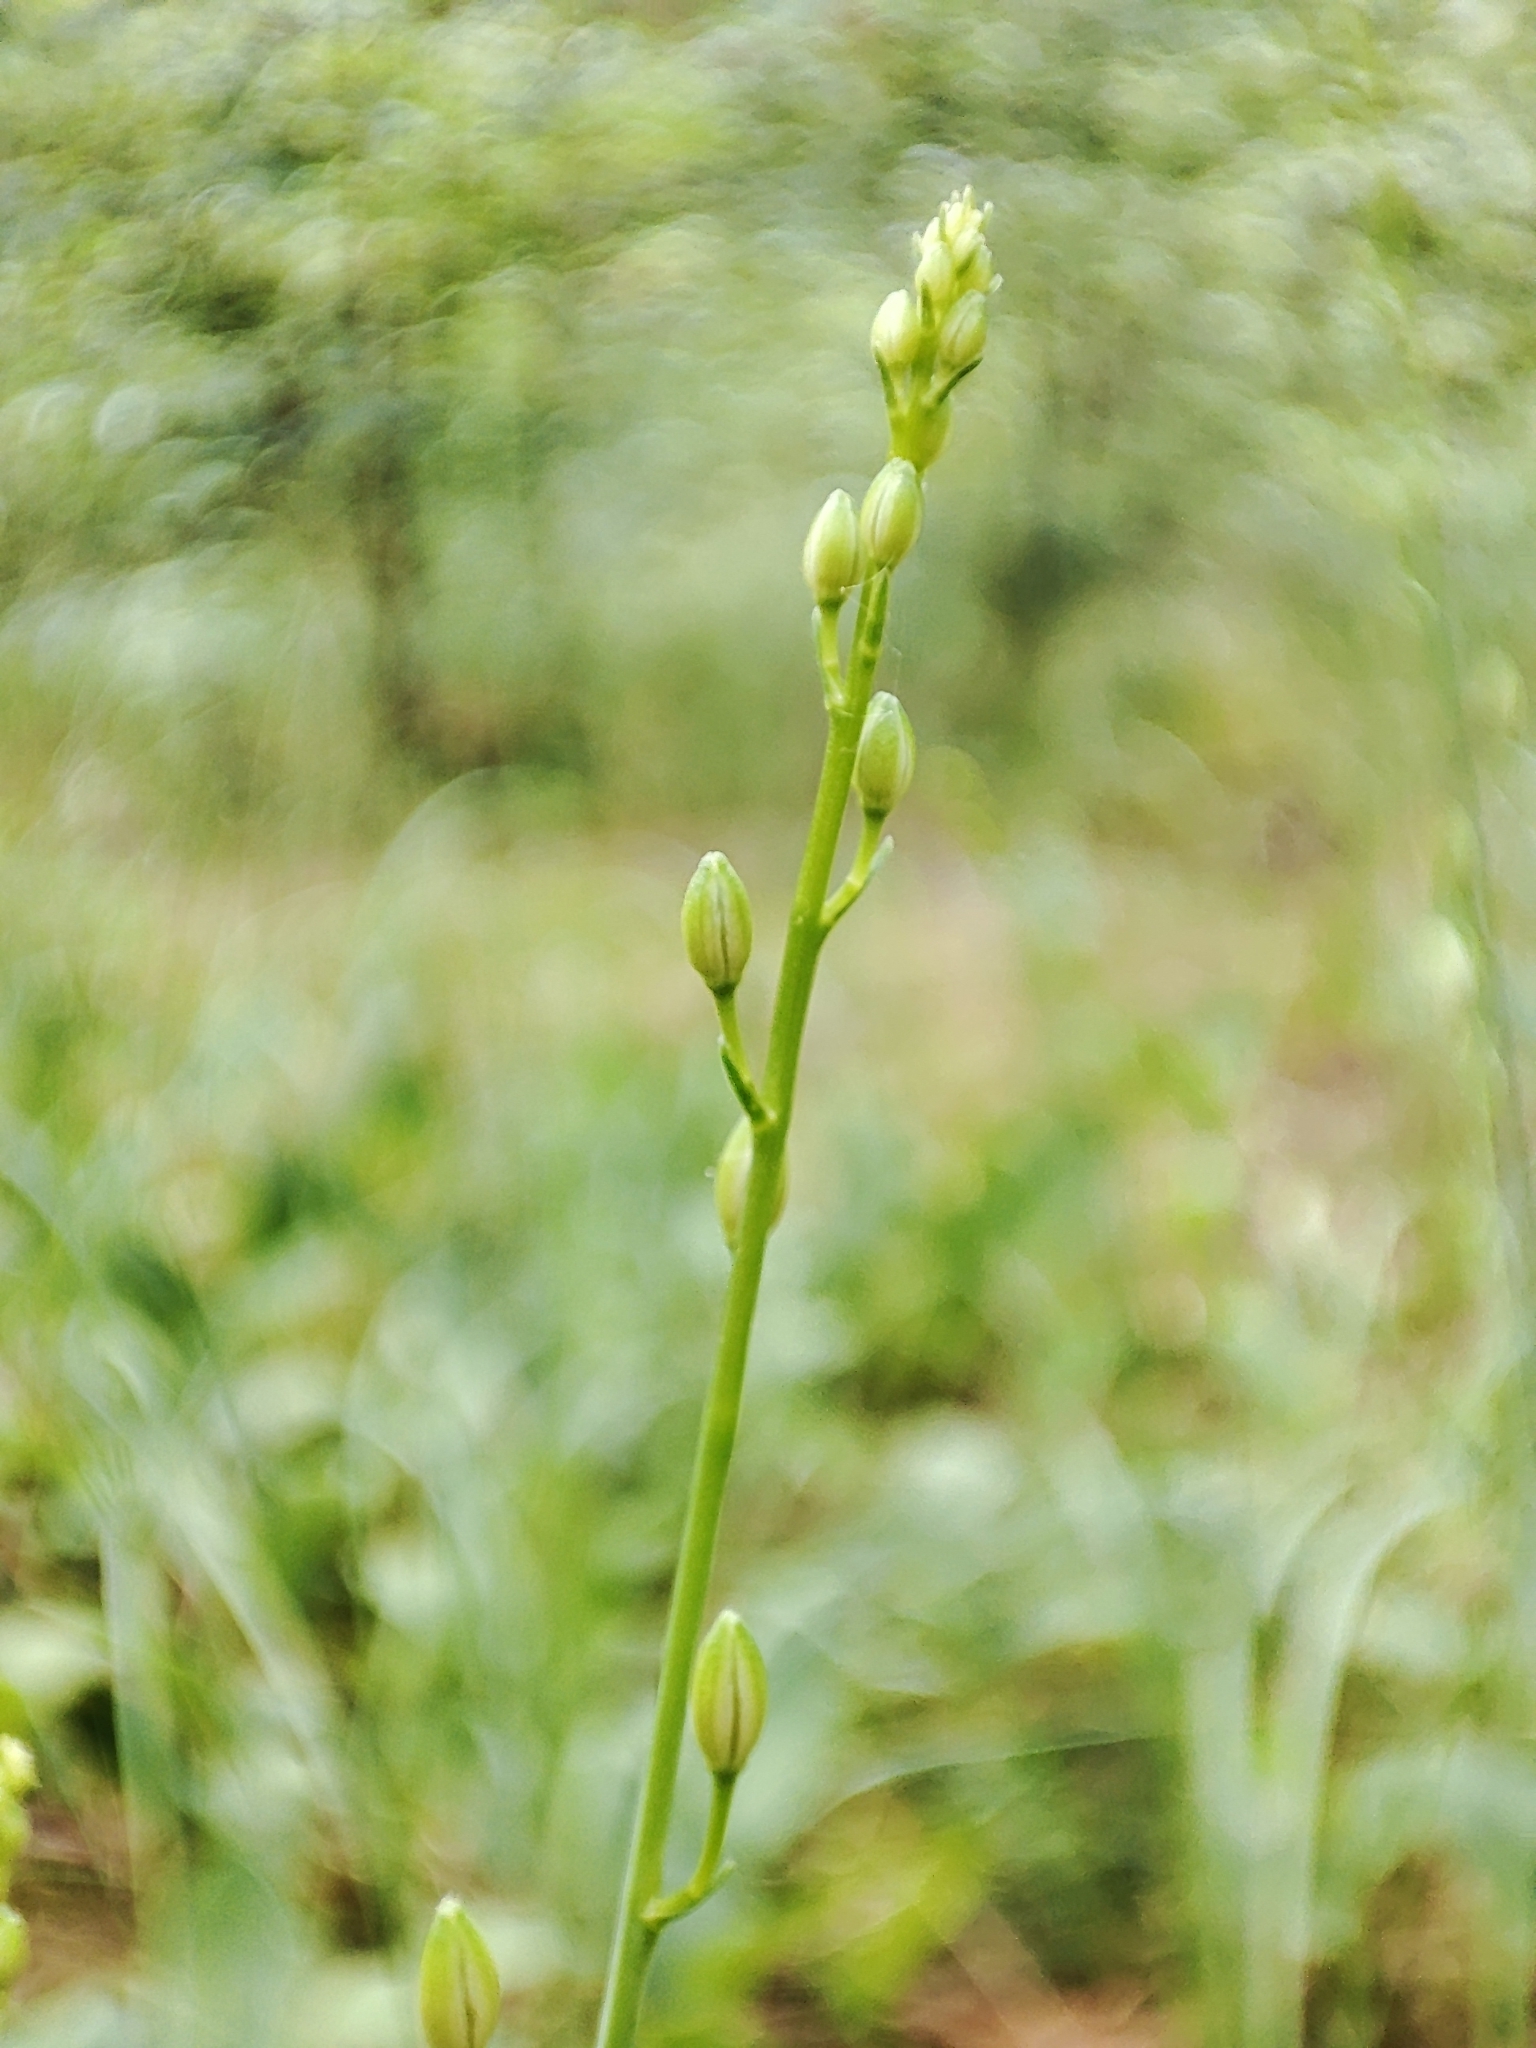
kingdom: Plantae
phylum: Tracheophyta
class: Liliopsida
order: Asparagales
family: Asparagaceae
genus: Anthericum
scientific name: Anthericum ramosum
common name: Branched st. bernard's-lily
